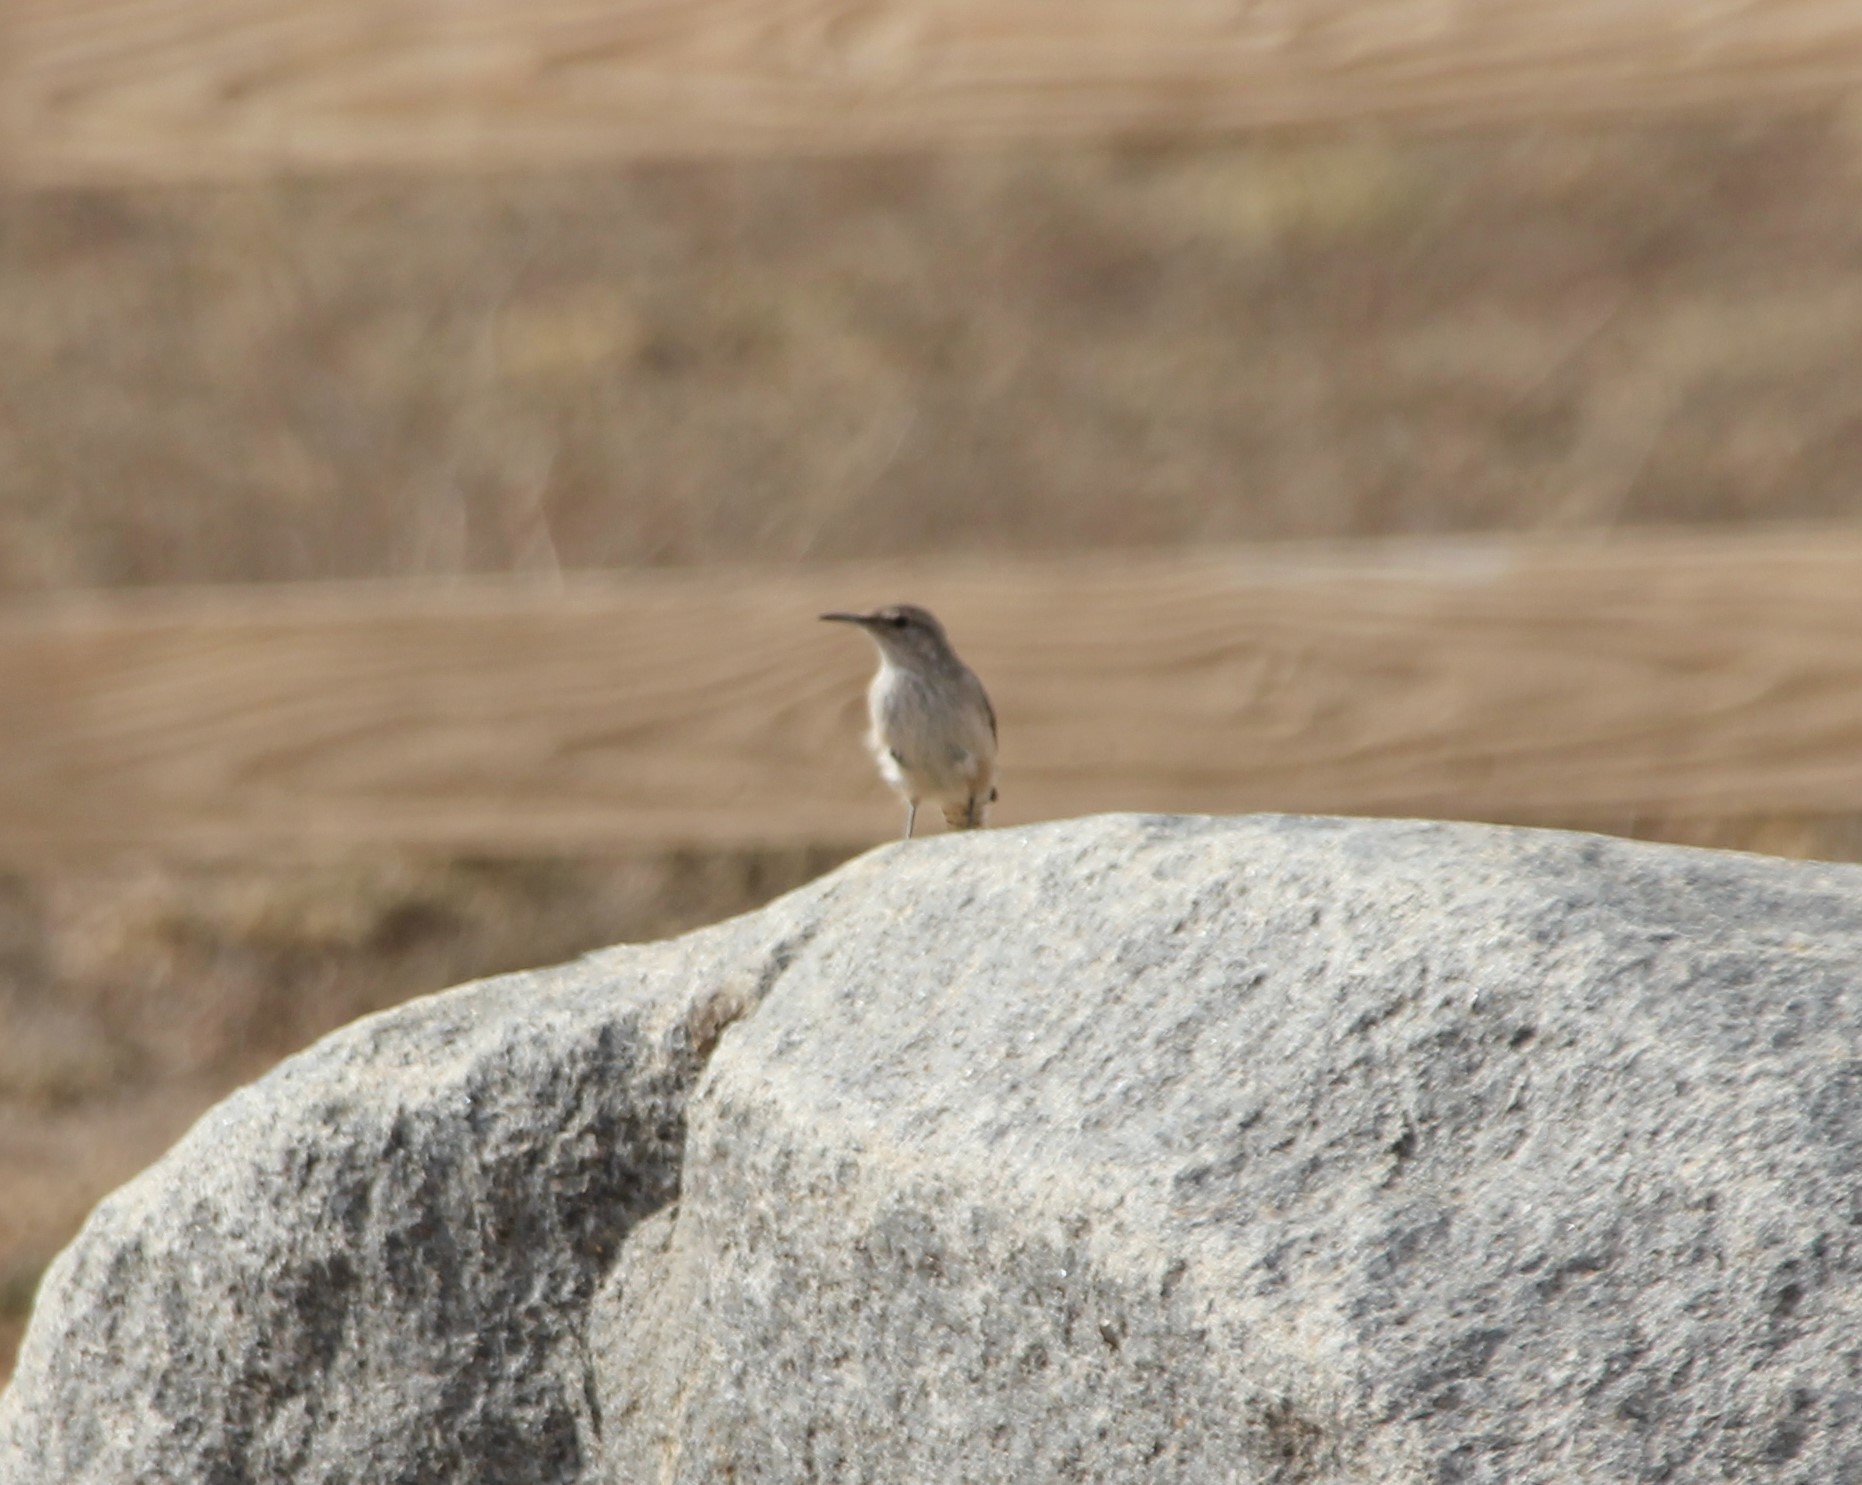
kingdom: Animalia
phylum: Chordata
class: Aves
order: Passeriformes
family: Troglodytidae
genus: Salpinctes
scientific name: Salpinctes obsoletus
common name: Rock wren
